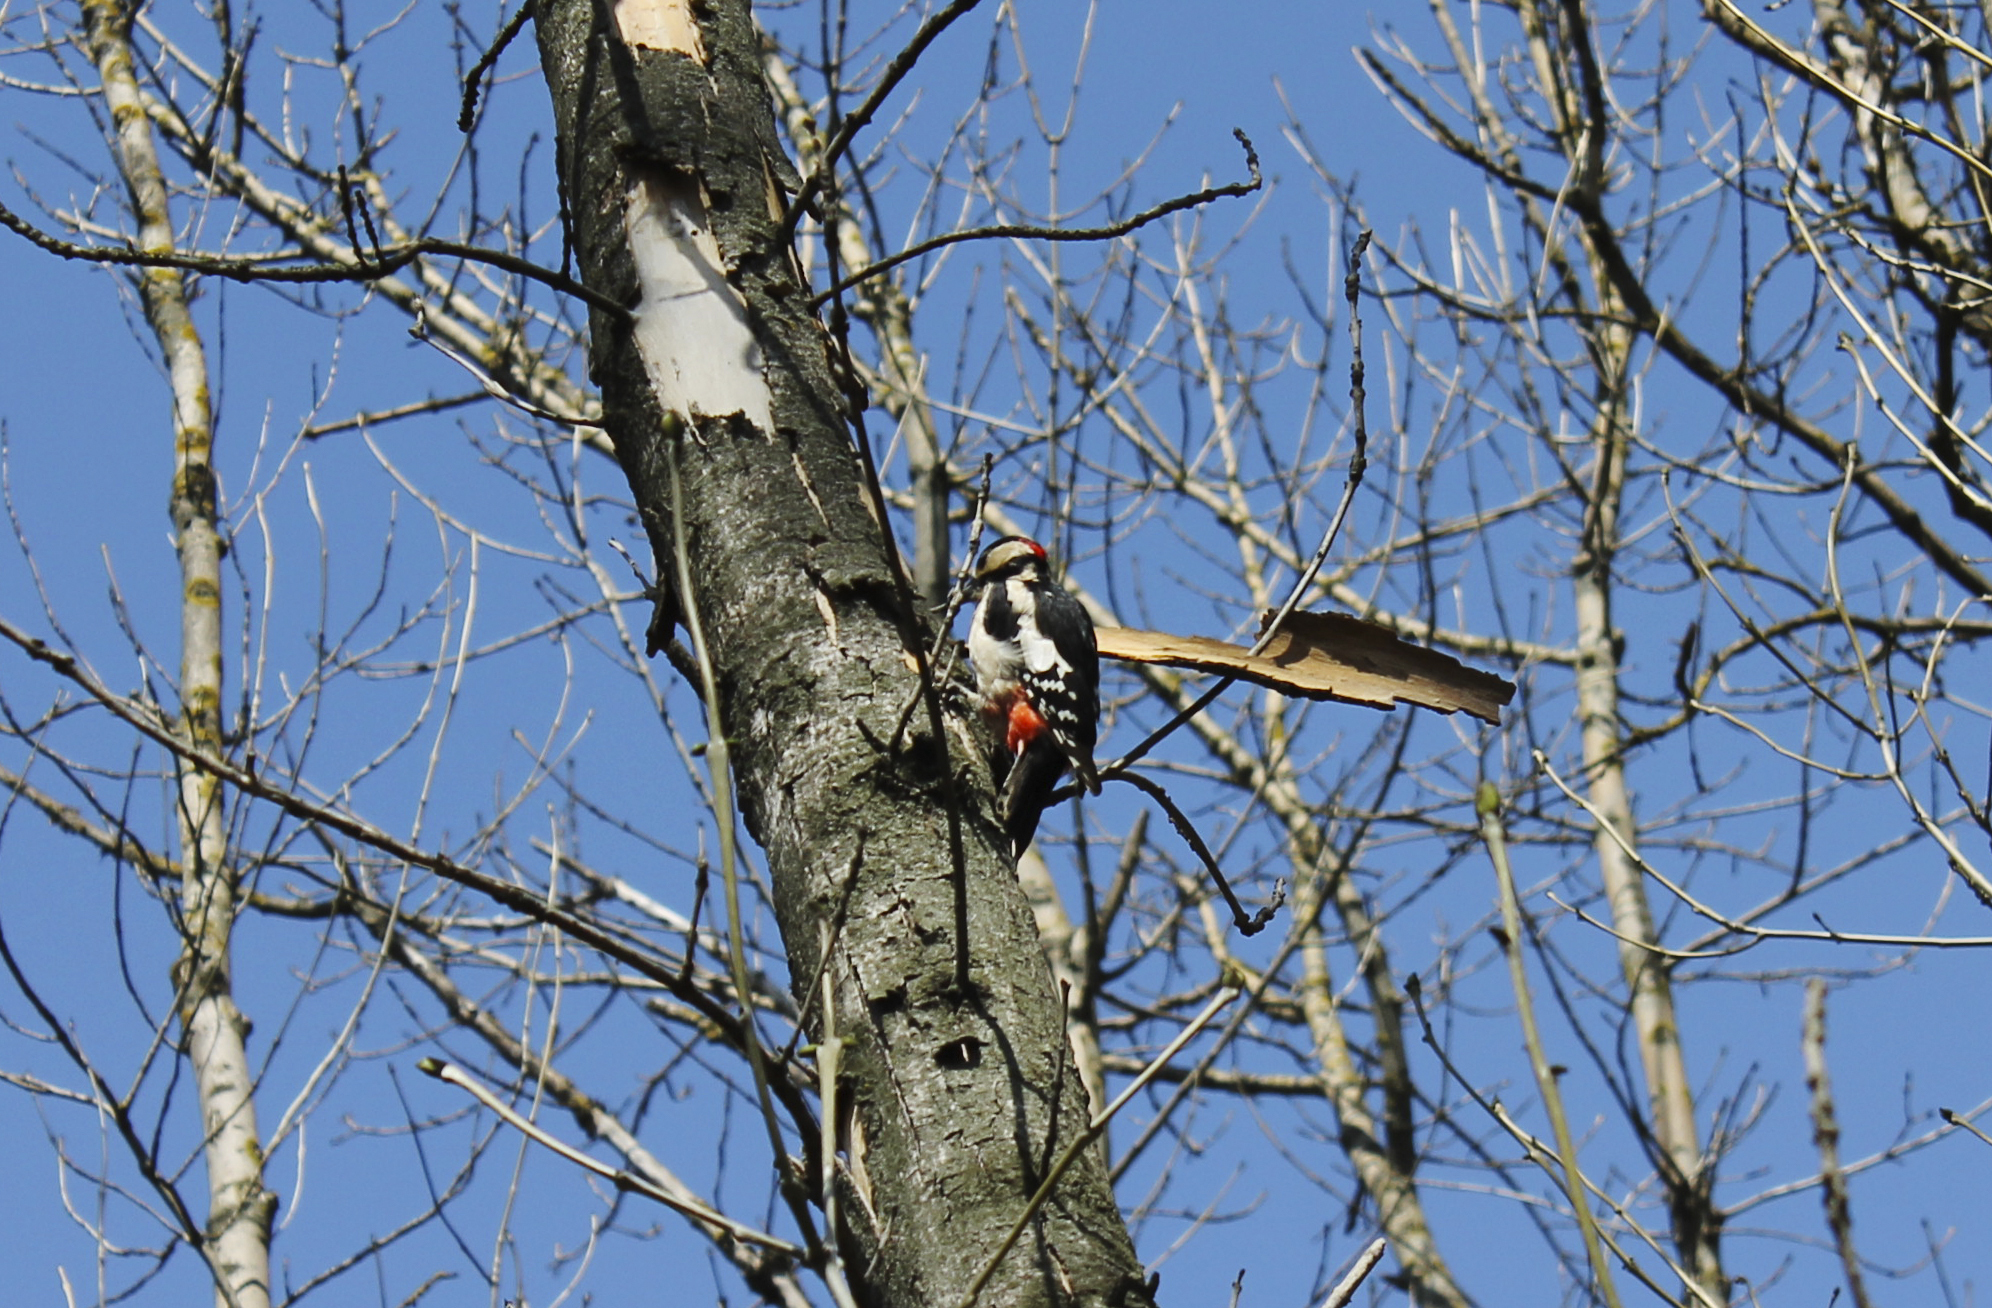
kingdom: Animalia
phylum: Chordata
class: Aves
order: Piciformes
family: Picidae
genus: Dendrocopos
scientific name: Dendrocopos major
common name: Great spotted woodpecker
